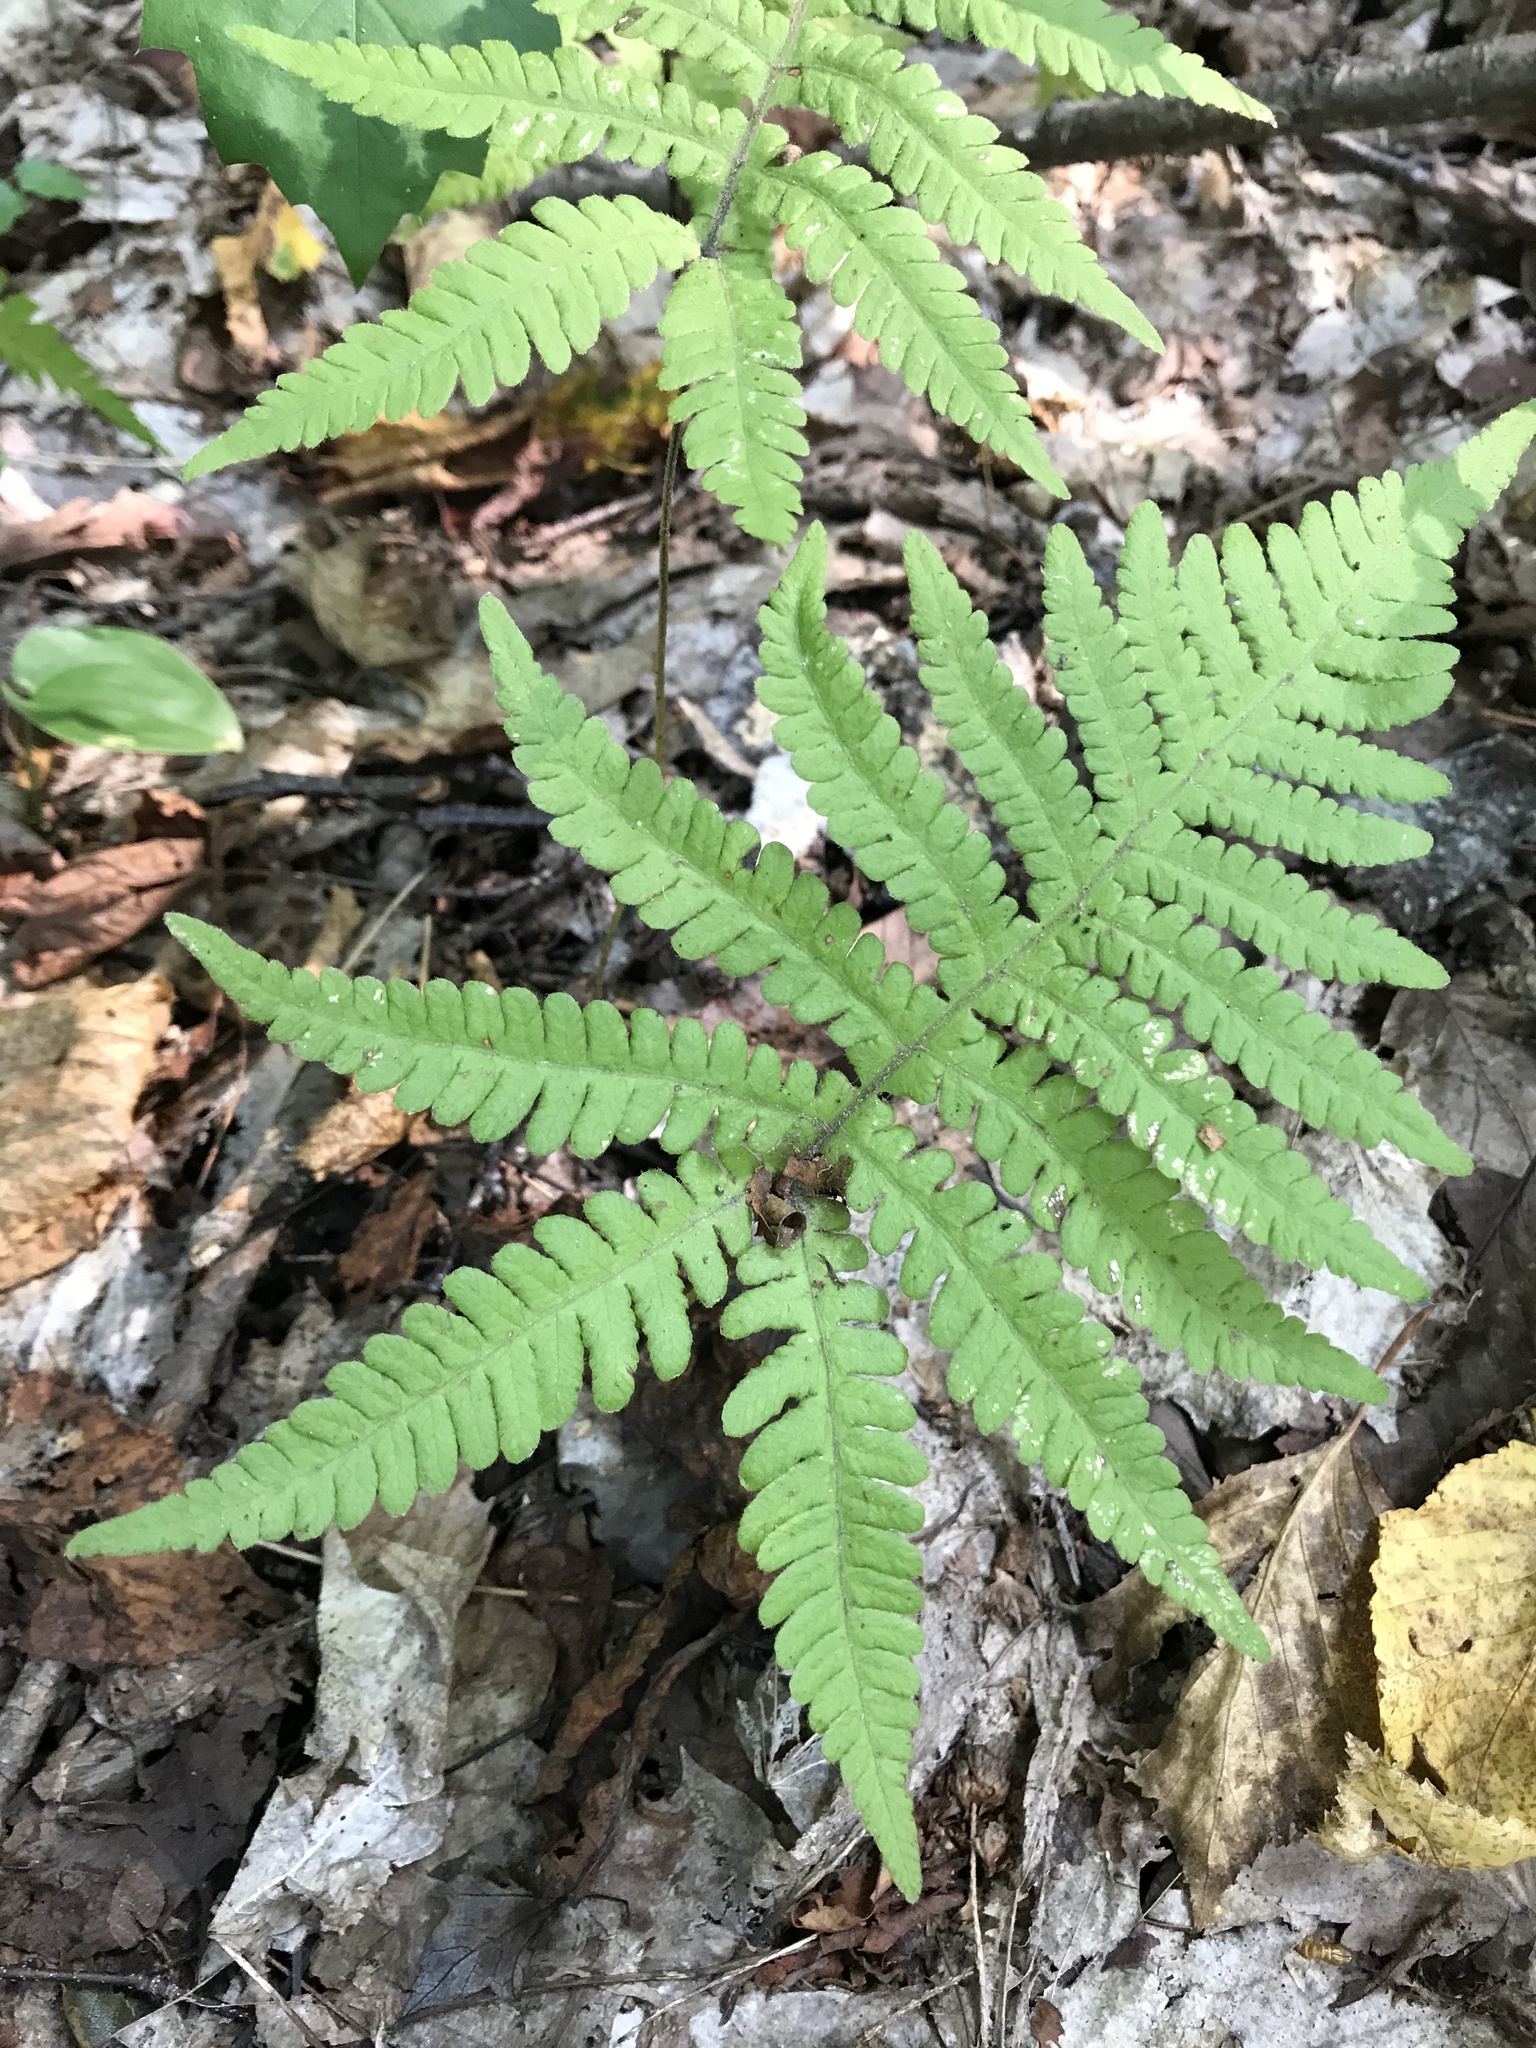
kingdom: Plantae
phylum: Tracheophyta
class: Polypodiopsida
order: Polypodiales
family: Thelypteridaceae
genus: Phegopteris
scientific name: Phegopteris connectilis
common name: Beech fern
